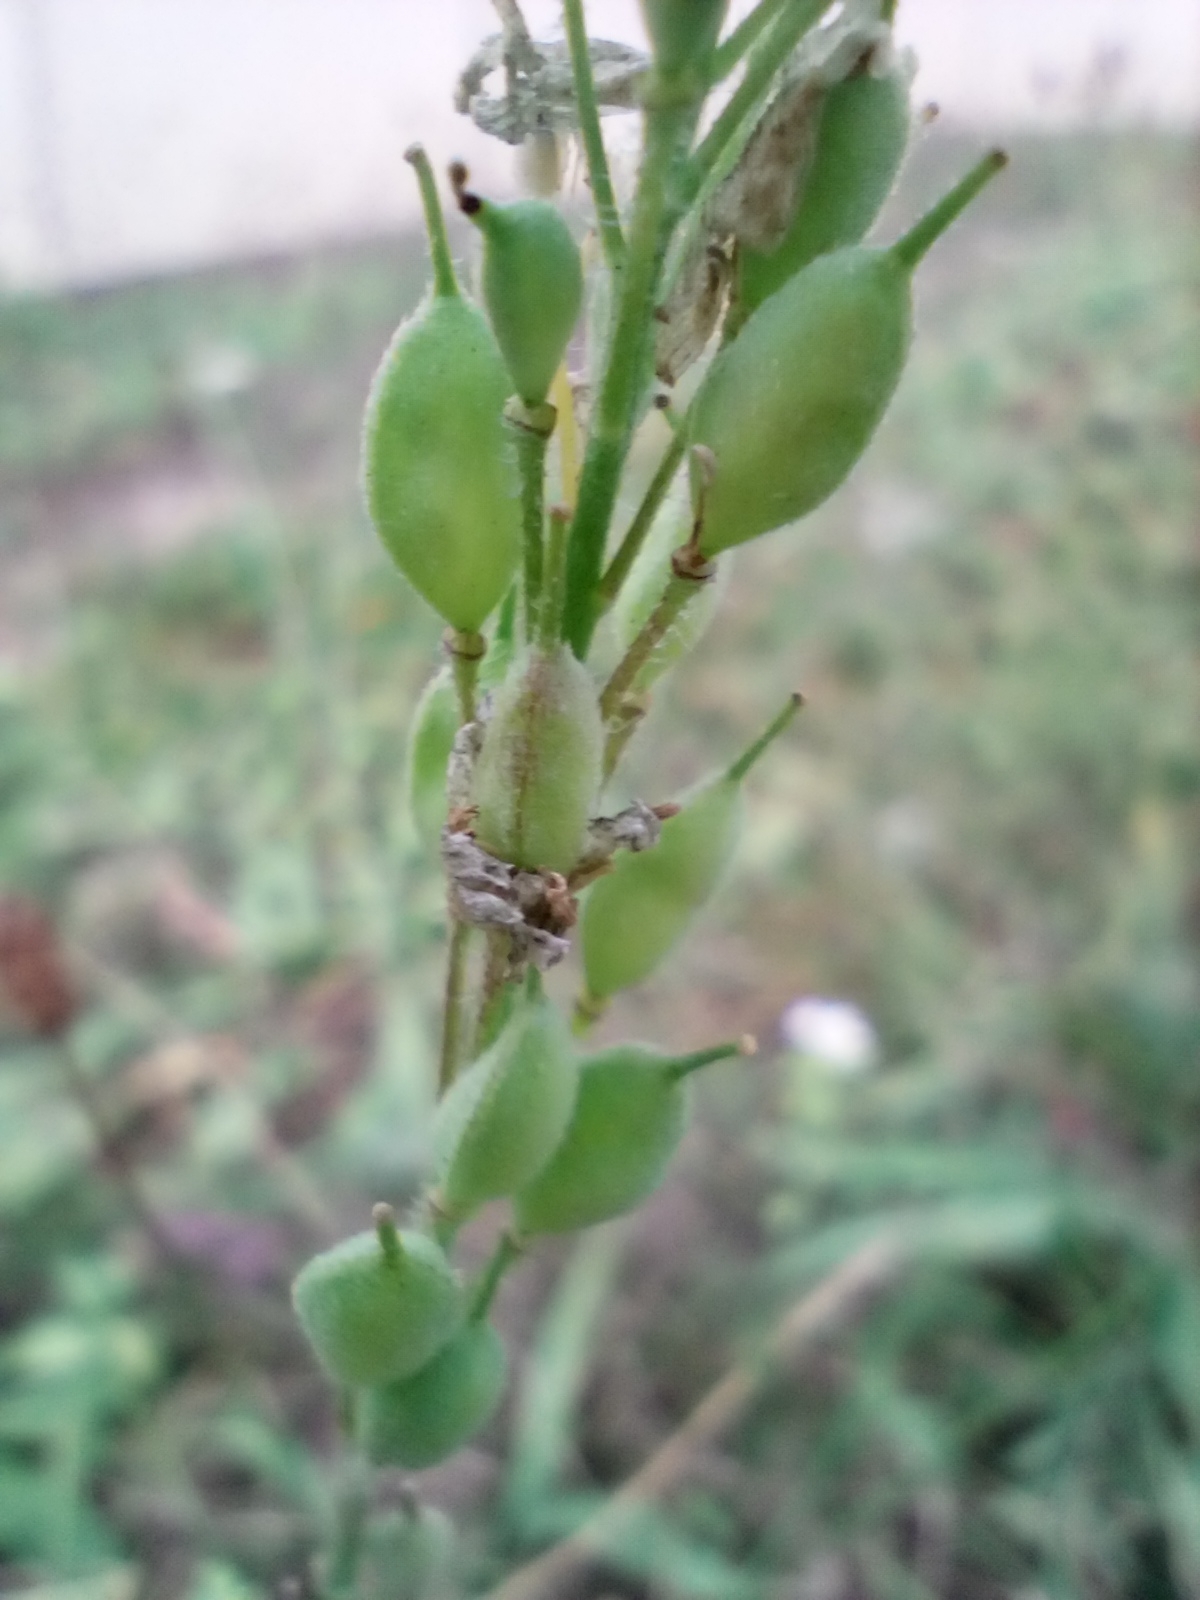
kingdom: Plantae
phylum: Tracheophyta
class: Magnoliopsida
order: Brassicales
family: Brassicaceae
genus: Berteroa
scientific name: Berteroa incana
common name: Hoary alison
